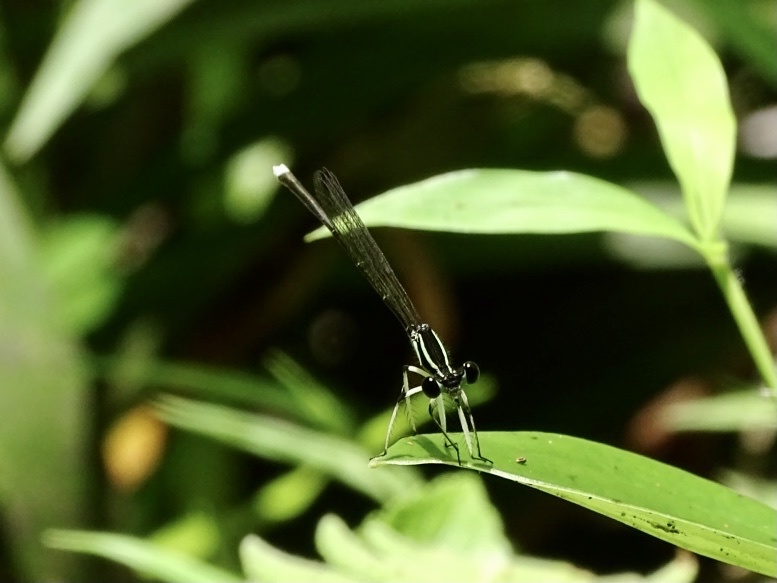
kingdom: Animalia
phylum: Arthropoda
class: Insecta
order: Odonata
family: Platycnemididae
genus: Pseudocopera
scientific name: Pseudocopera ciliata
